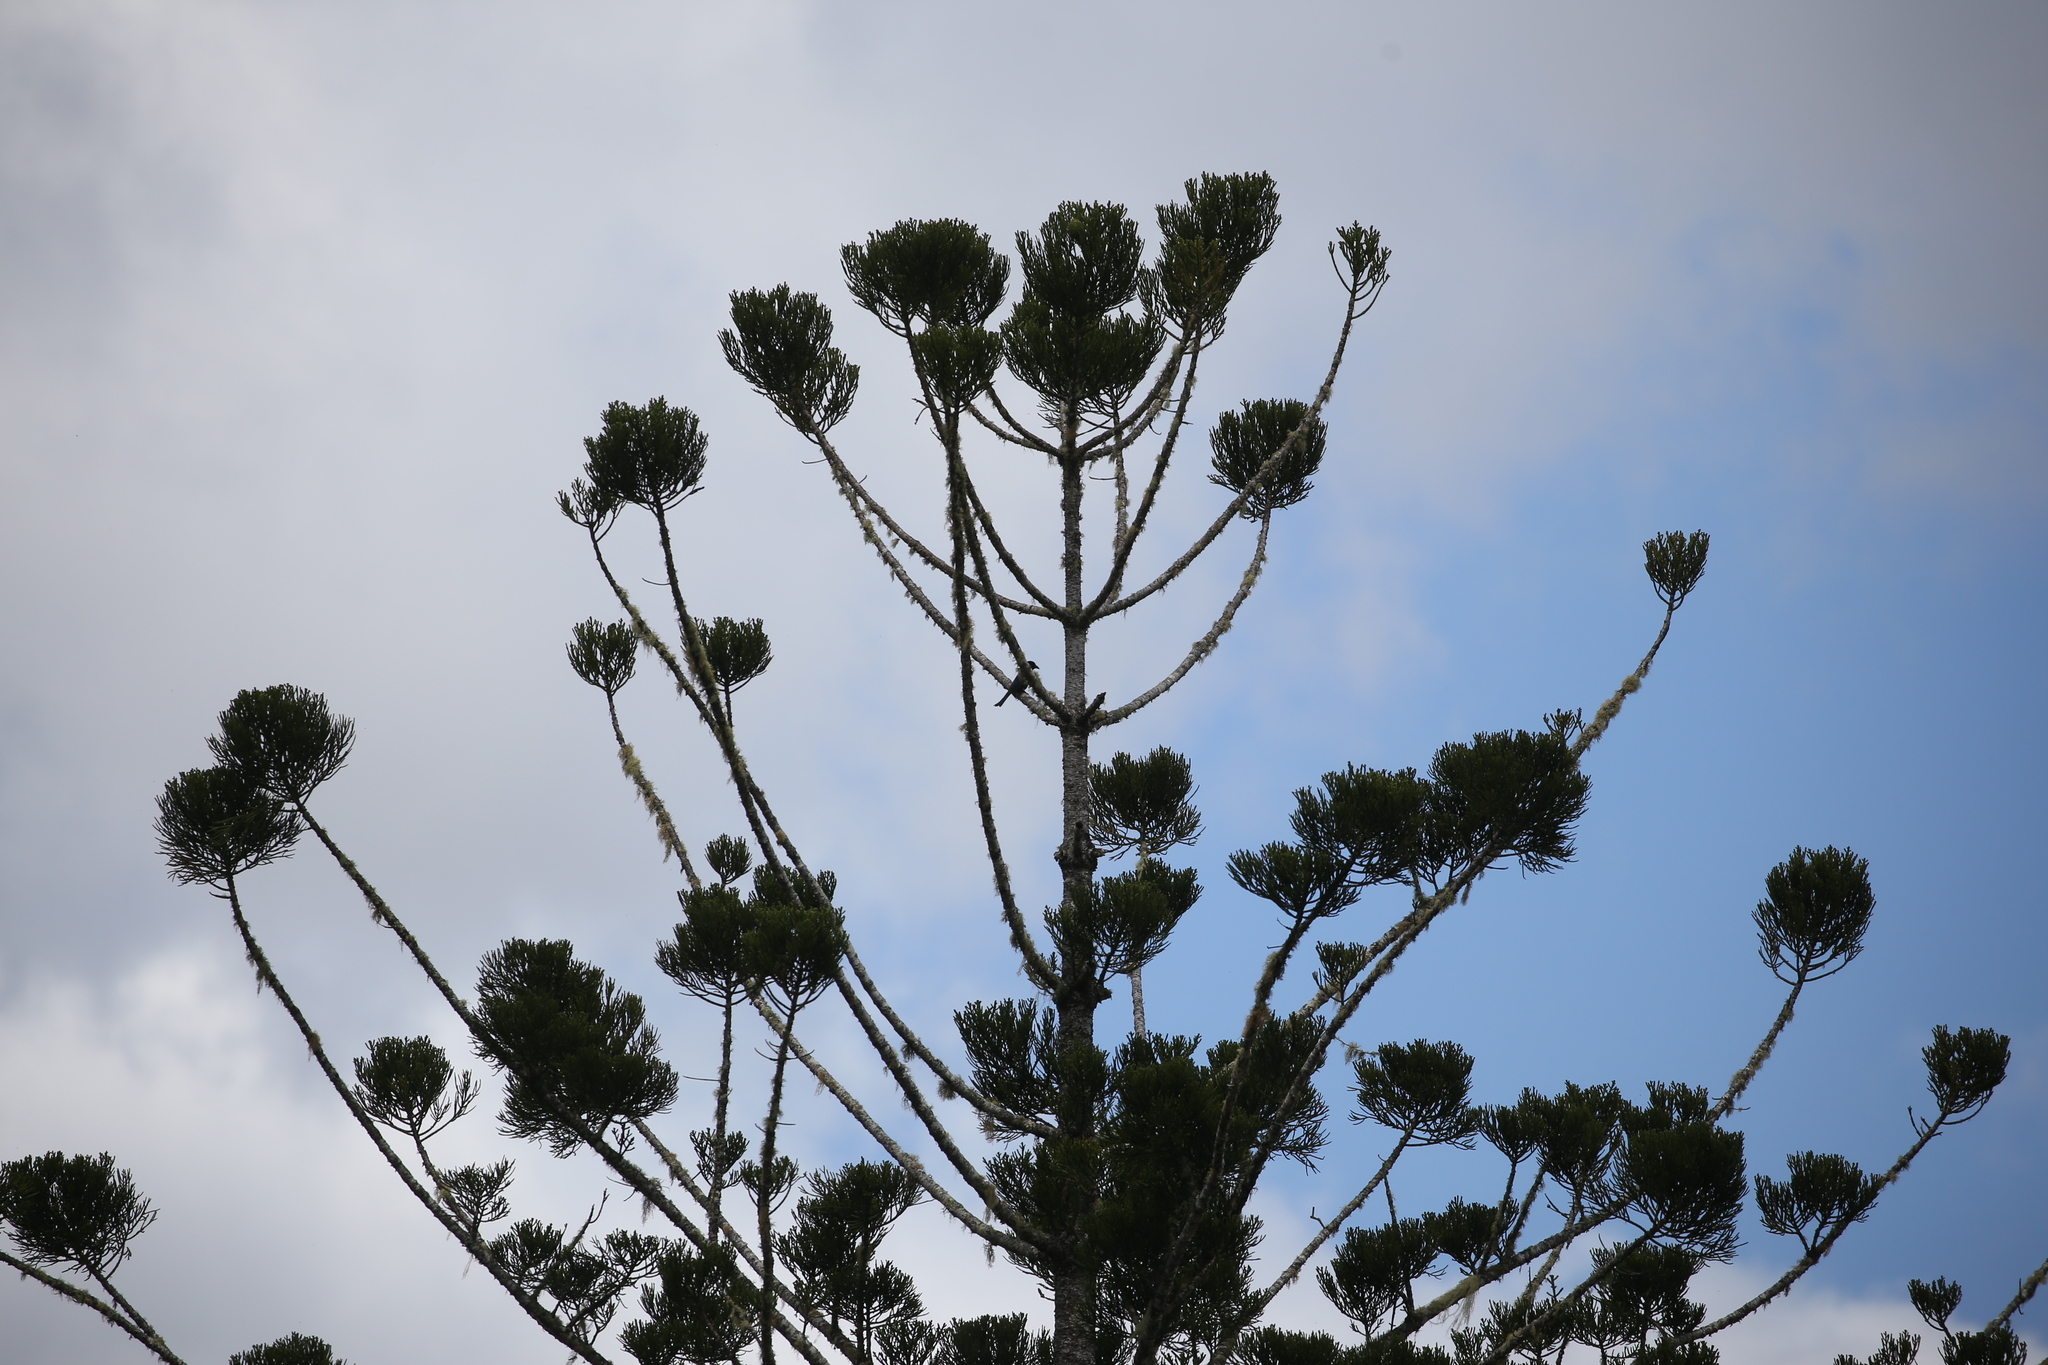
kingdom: Animalia
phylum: Chordata
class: Aves
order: Passeriformes
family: Dicruridae
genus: Dicrurus
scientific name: Dicrurus bracteatus
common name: Spangled drongo
